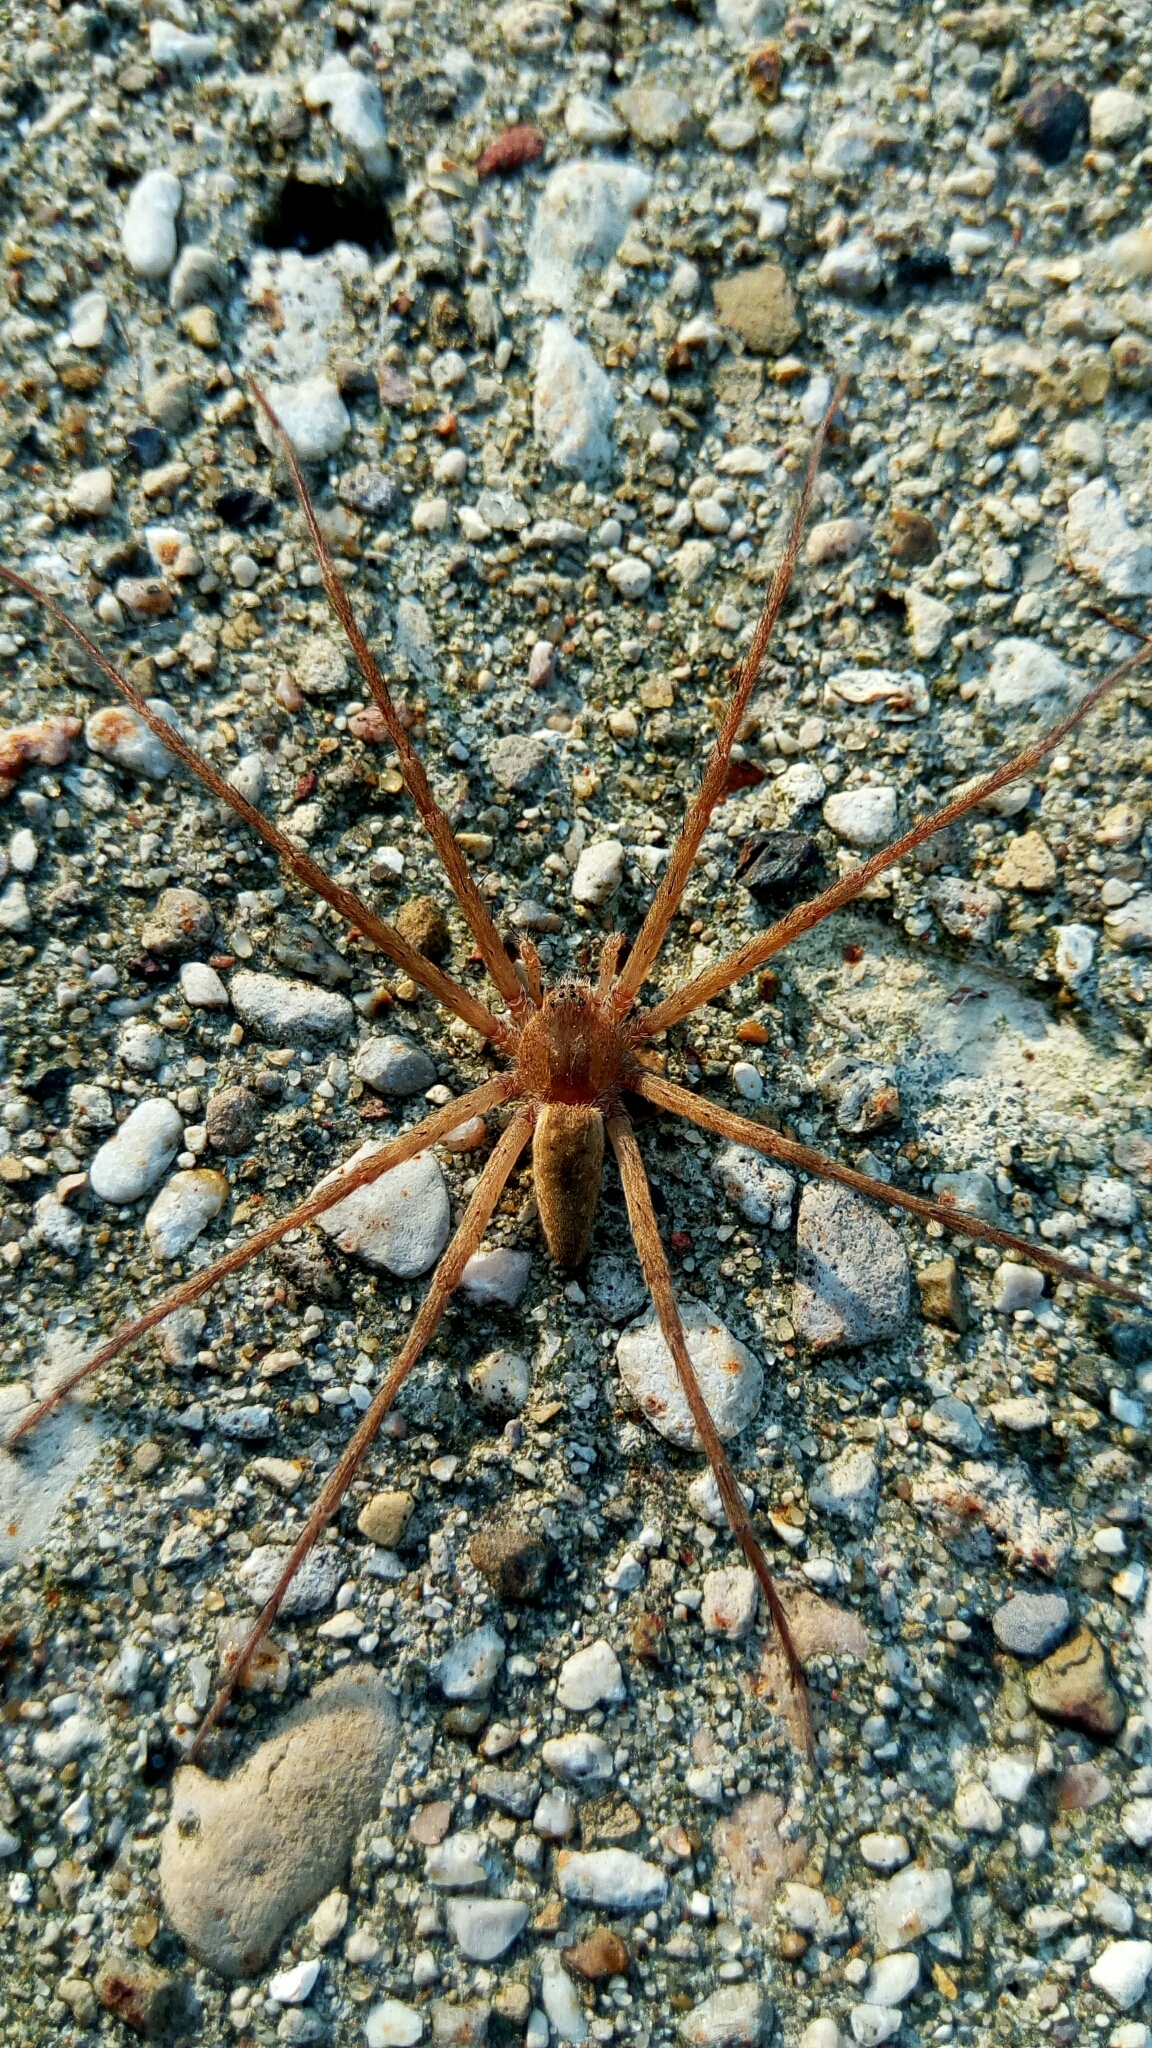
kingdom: Animalia
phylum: Arthropoda
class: Arachnida
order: Araneae
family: Pisauridae
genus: Pisaurina
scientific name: Pisaurina mira
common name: American nursery web spider
